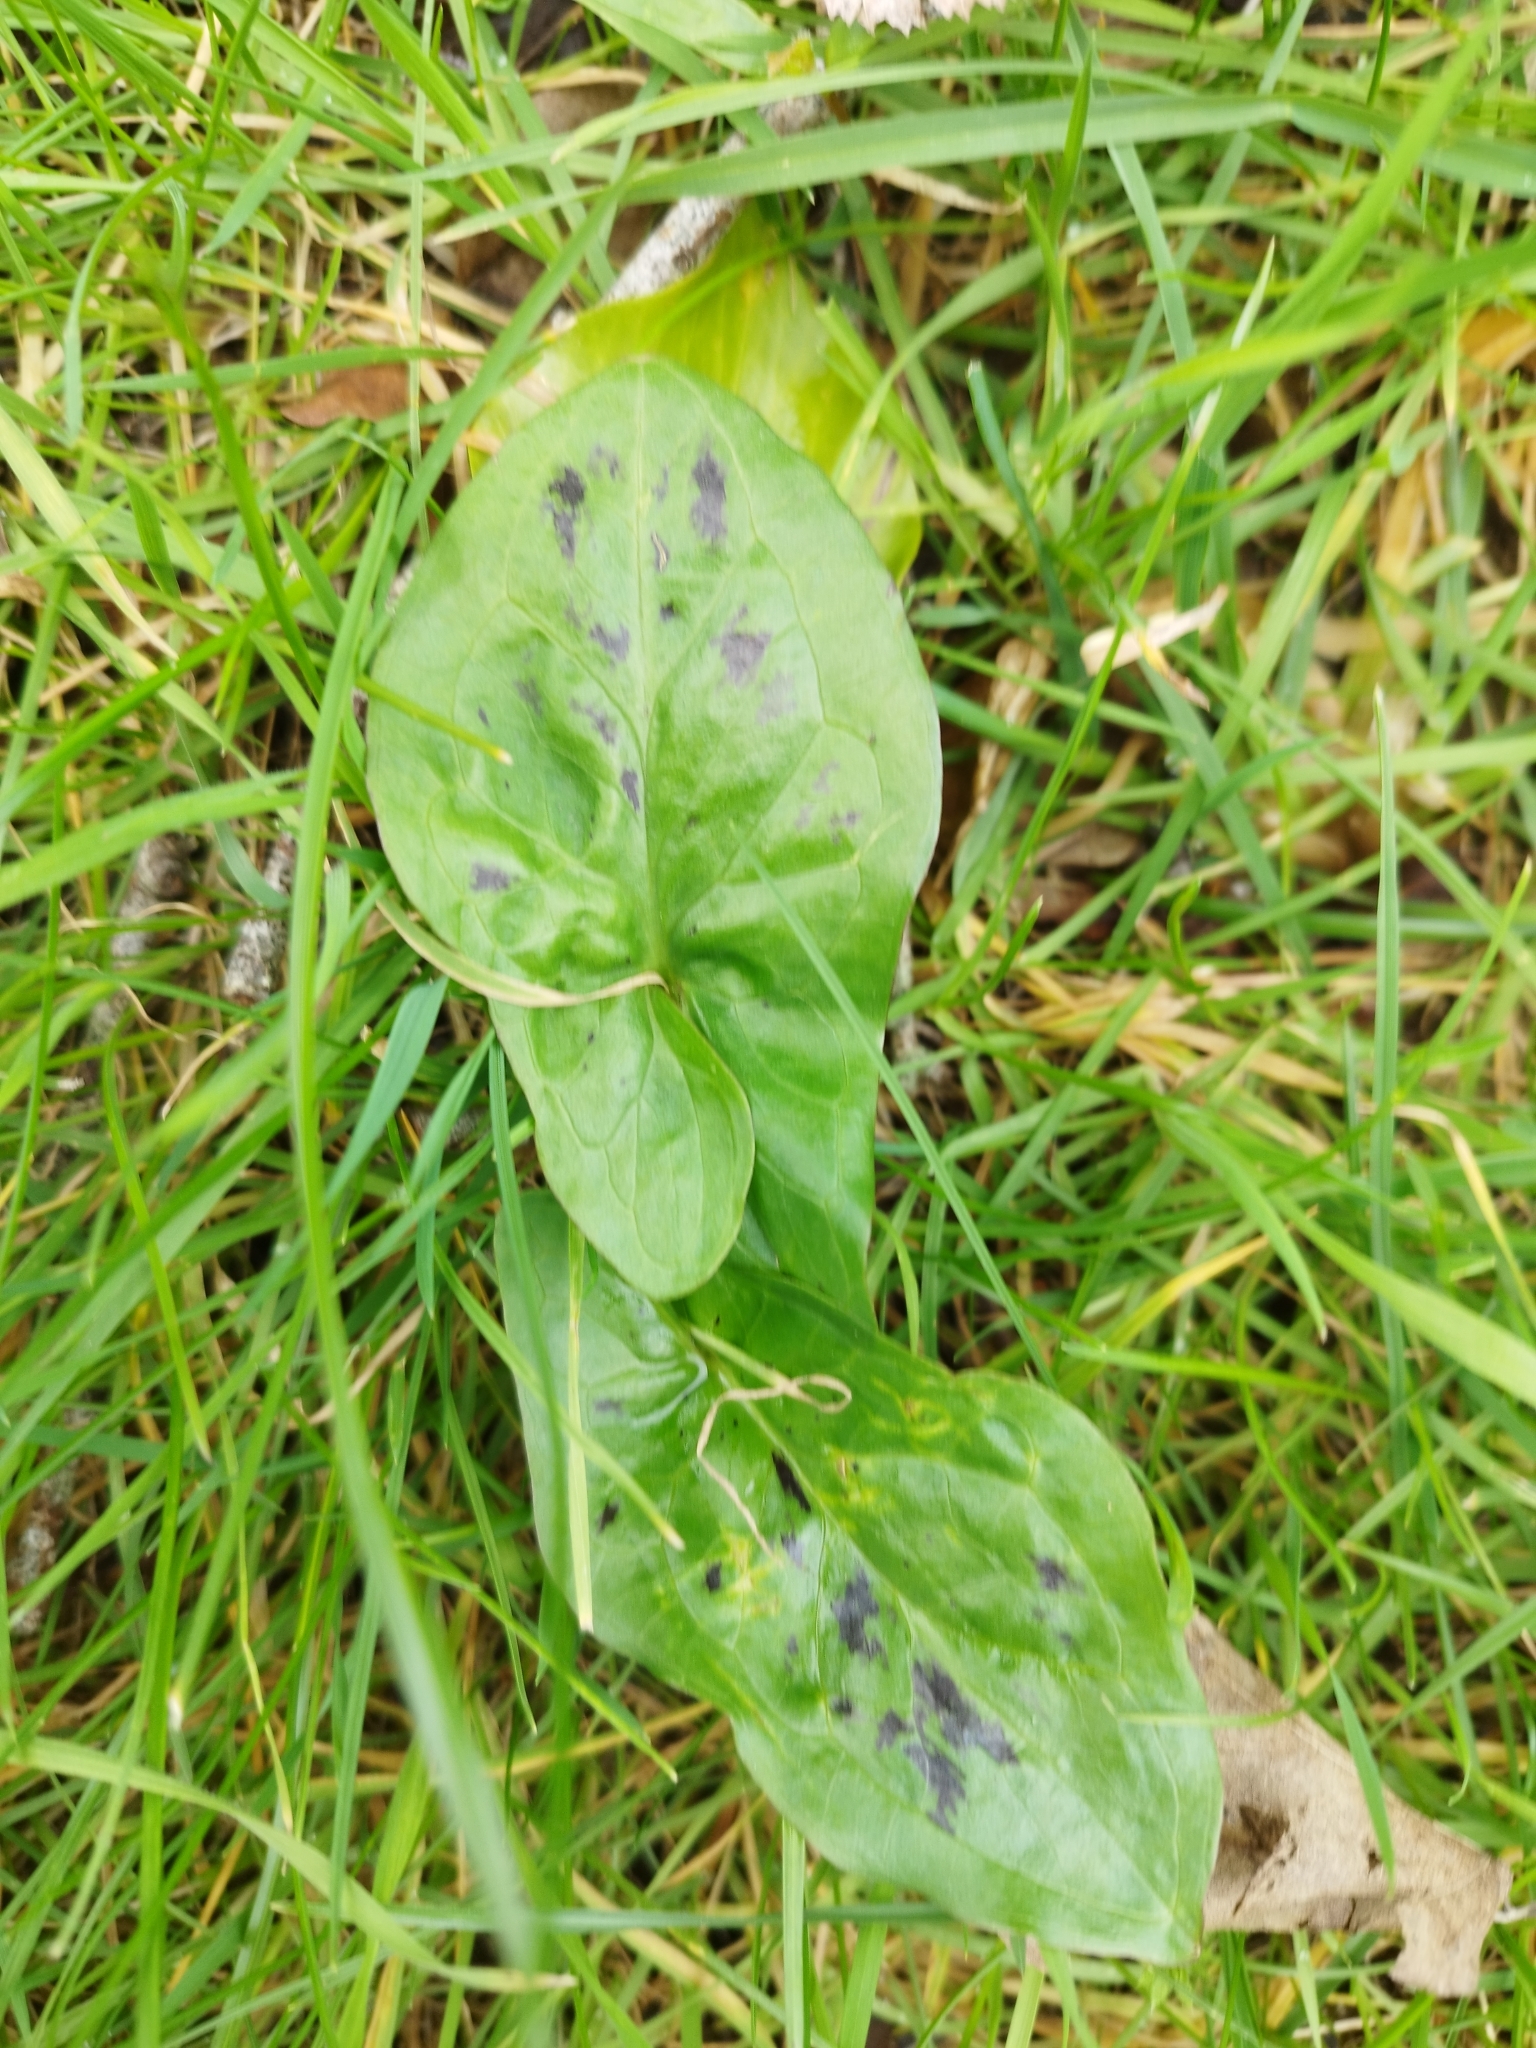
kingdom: Plantae
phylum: Tracheophyta
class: Liliopsida
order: Alismatales
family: Araceae
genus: Arum
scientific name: Arum maculatum
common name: Lords-and-ladies
